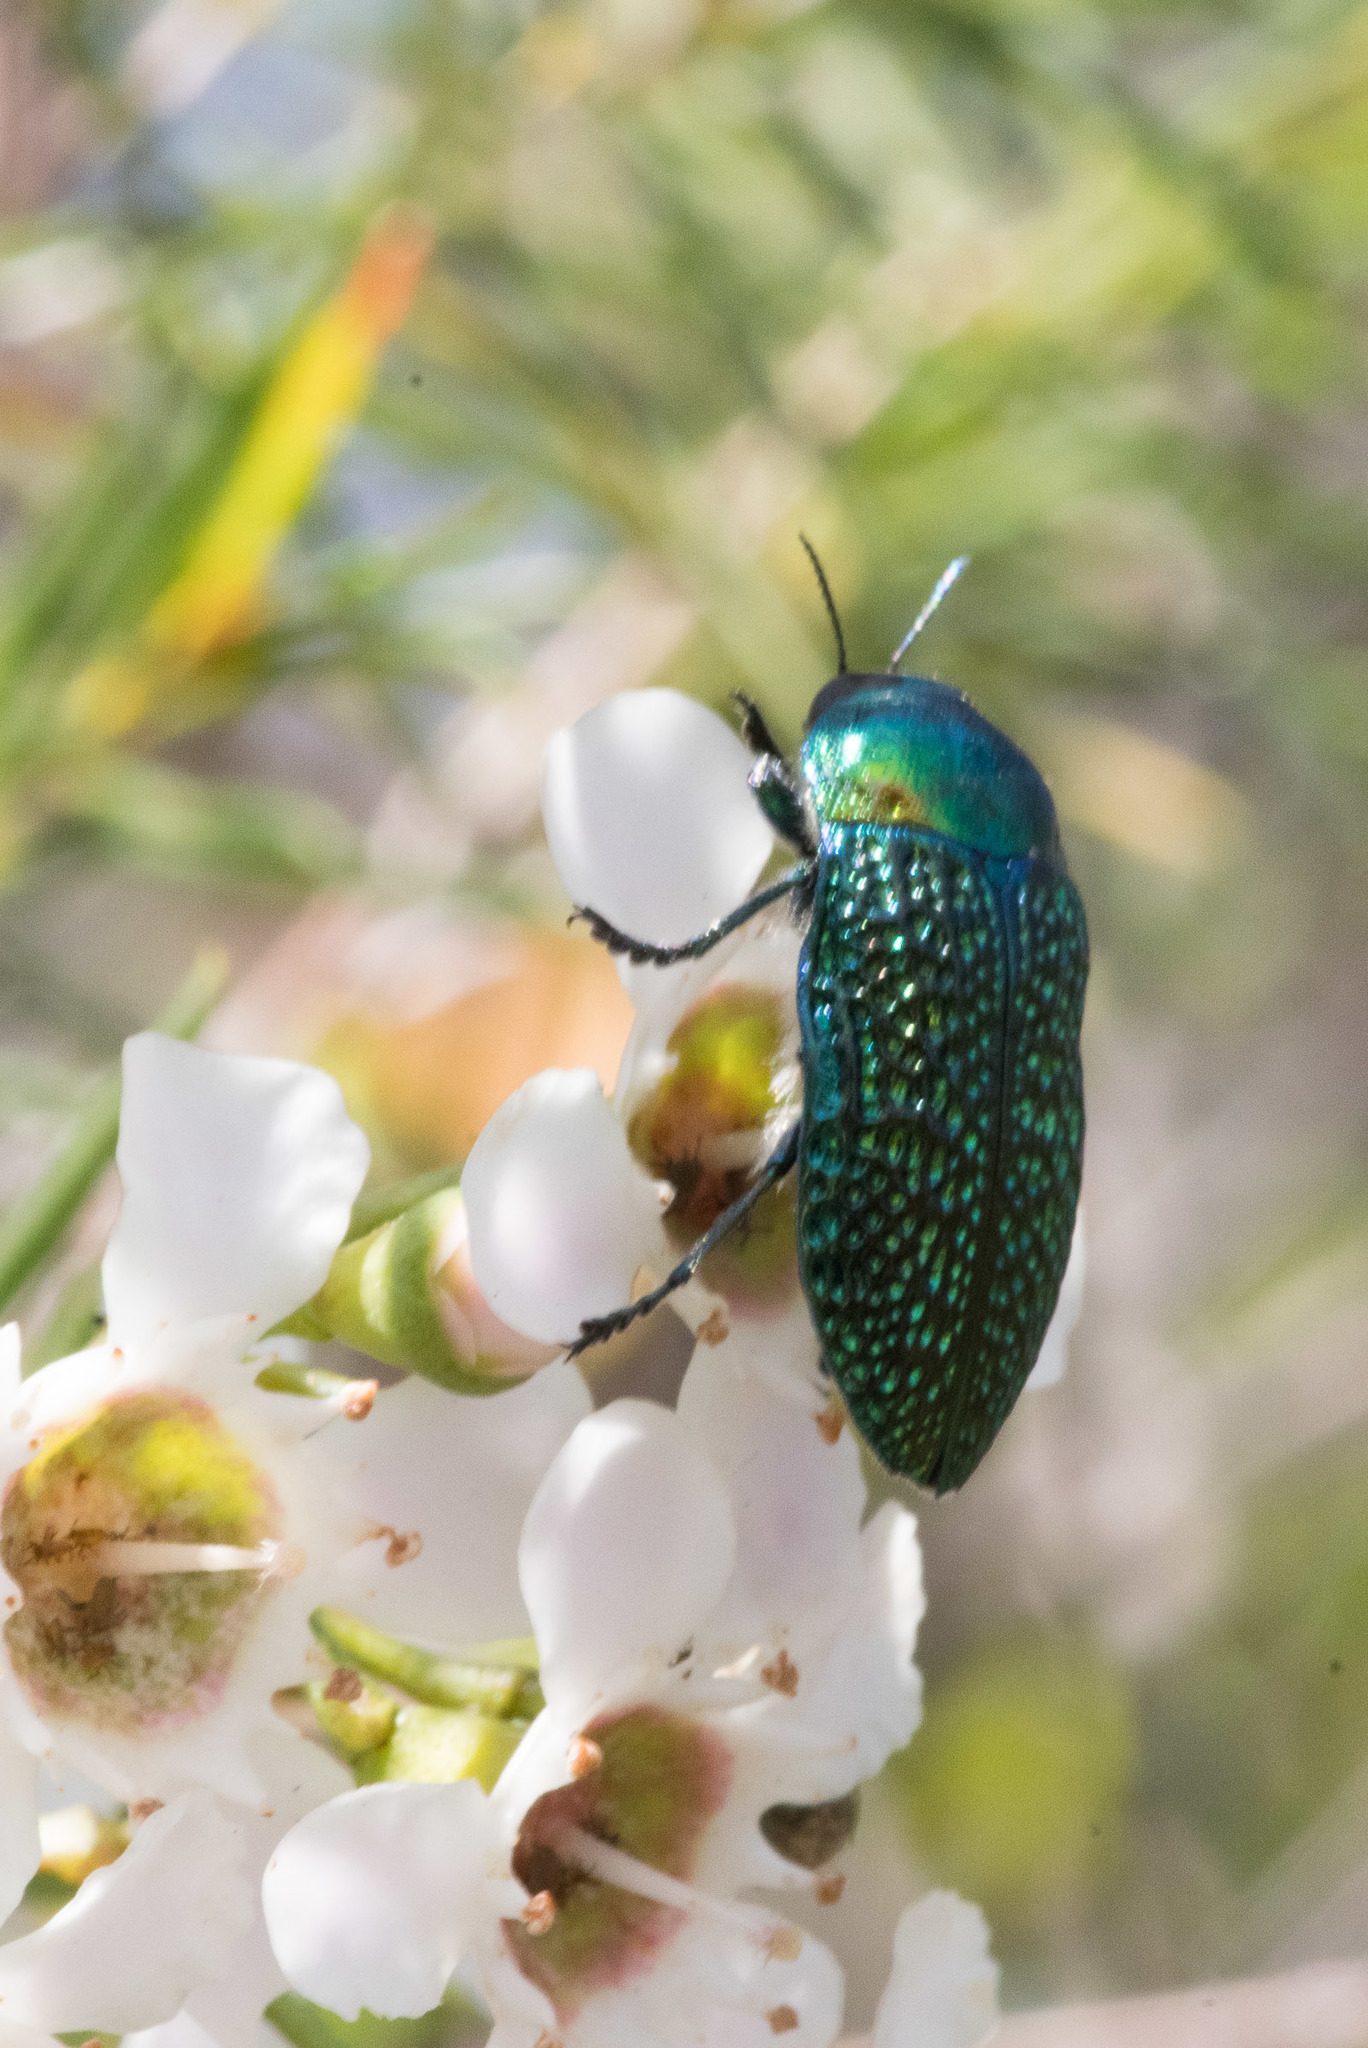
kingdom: Animalia
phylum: Arthropoda
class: Insecta
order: Coleoptera
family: Buprestidae
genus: Stigmodera
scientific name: Stigmodera gratiosa
